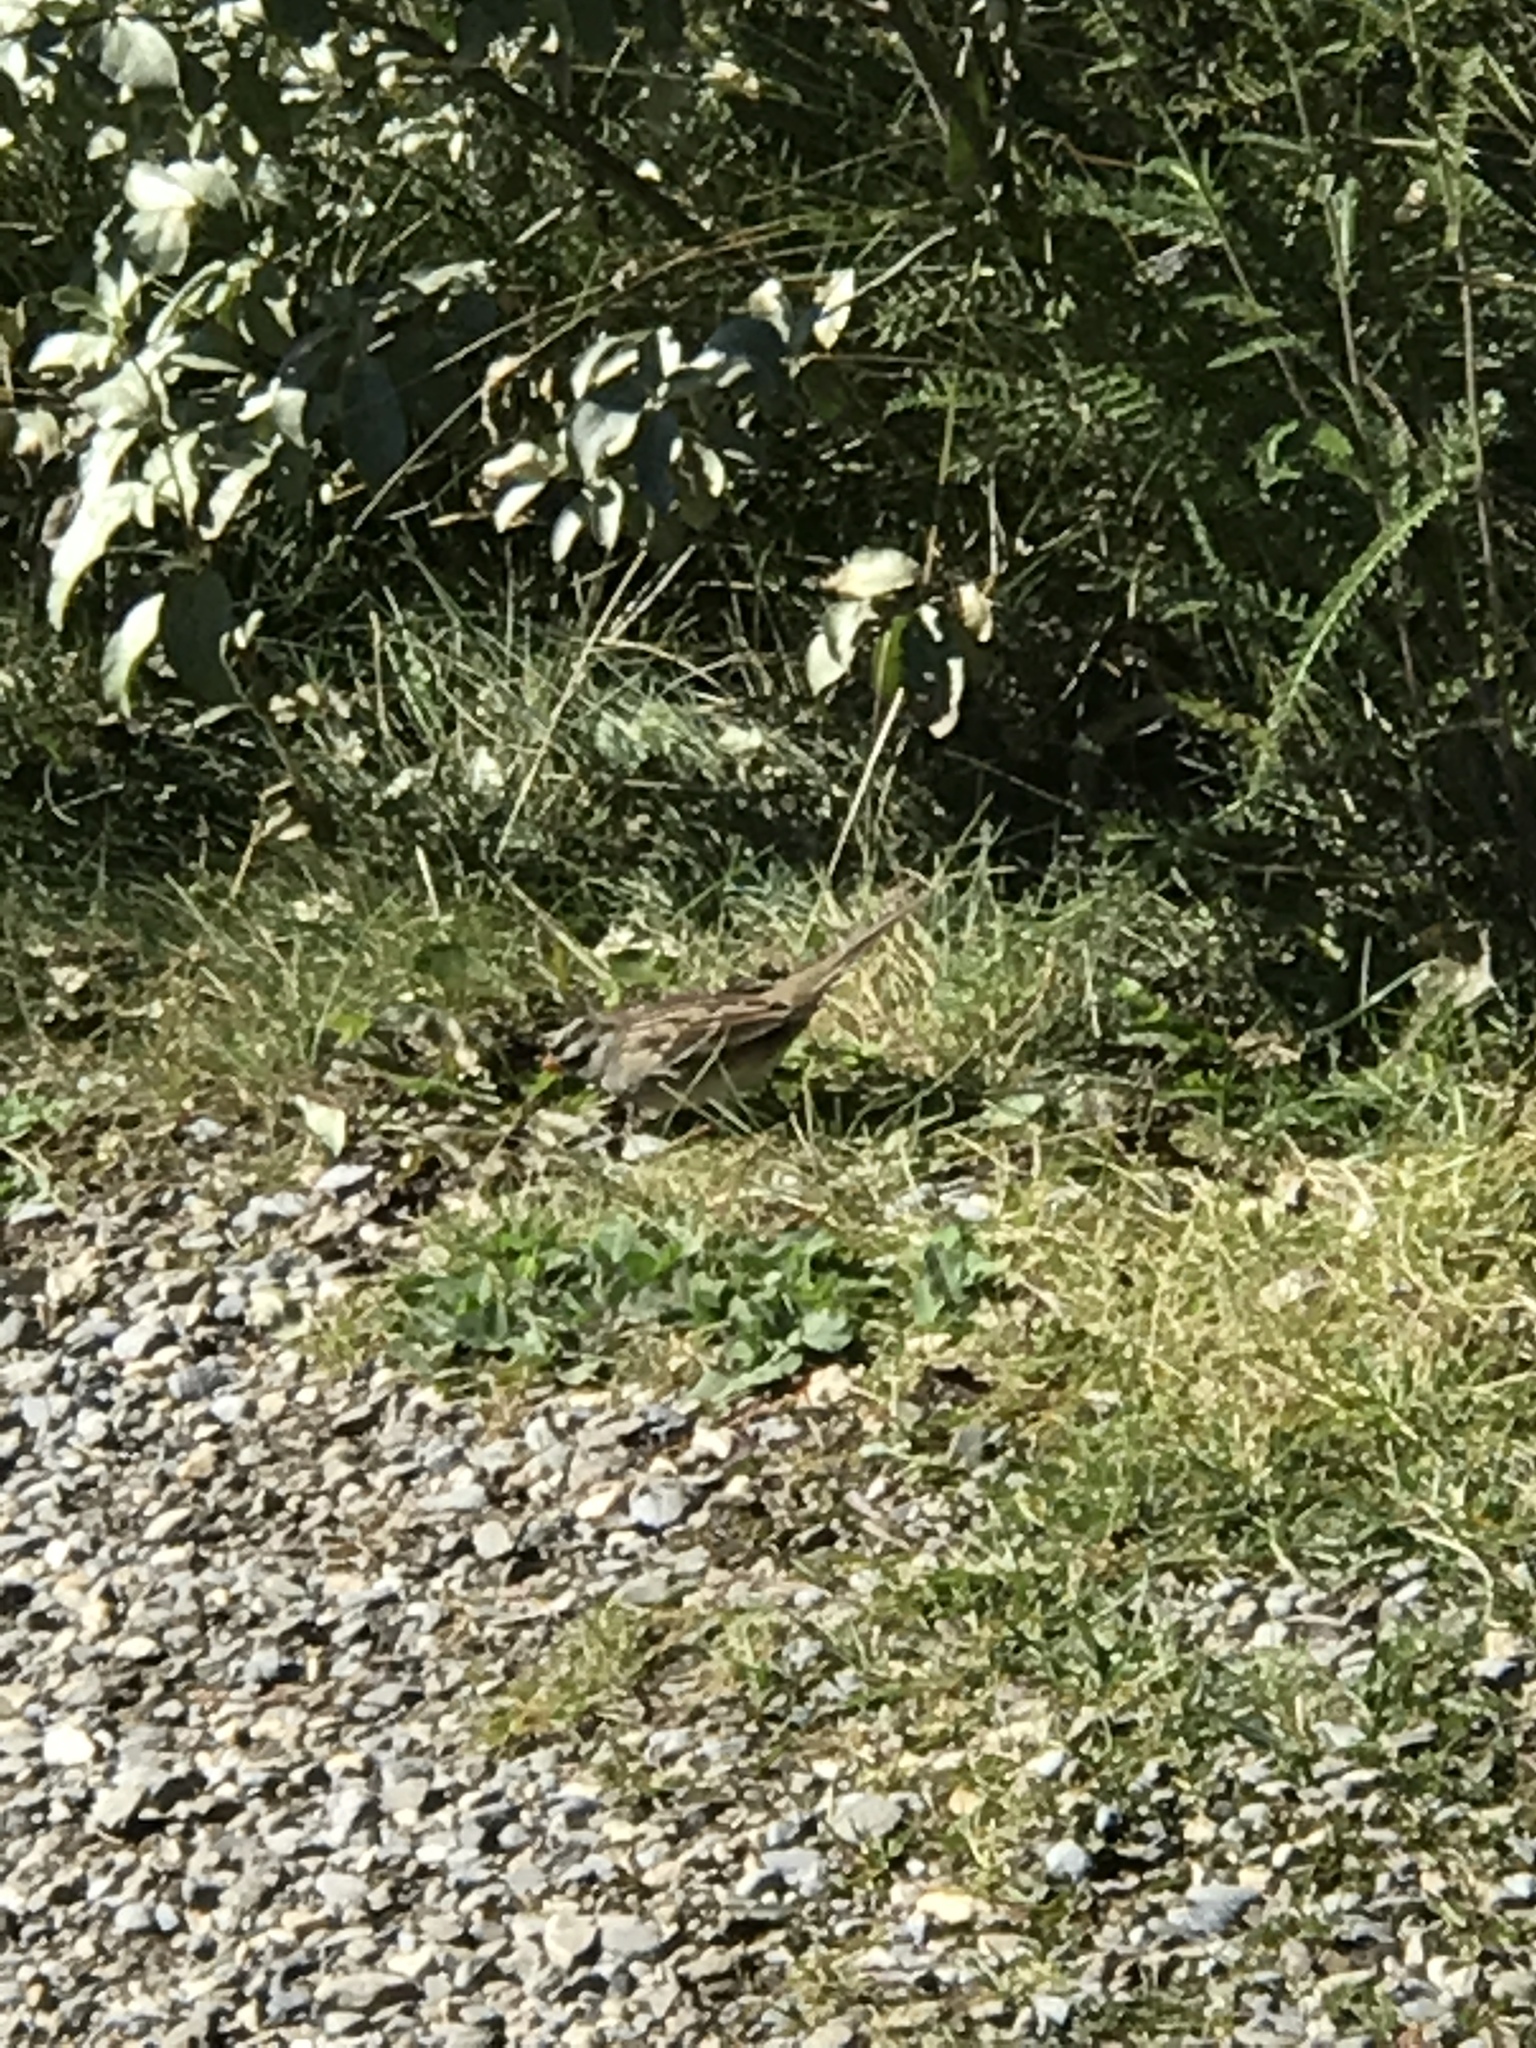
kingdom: Animalia
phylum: Chordata
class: Aves
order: Passeriformes
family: Passerellidae
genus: Zonotrichia
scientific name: Zonotrichia leucophrys
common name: White-crowned sparrow
